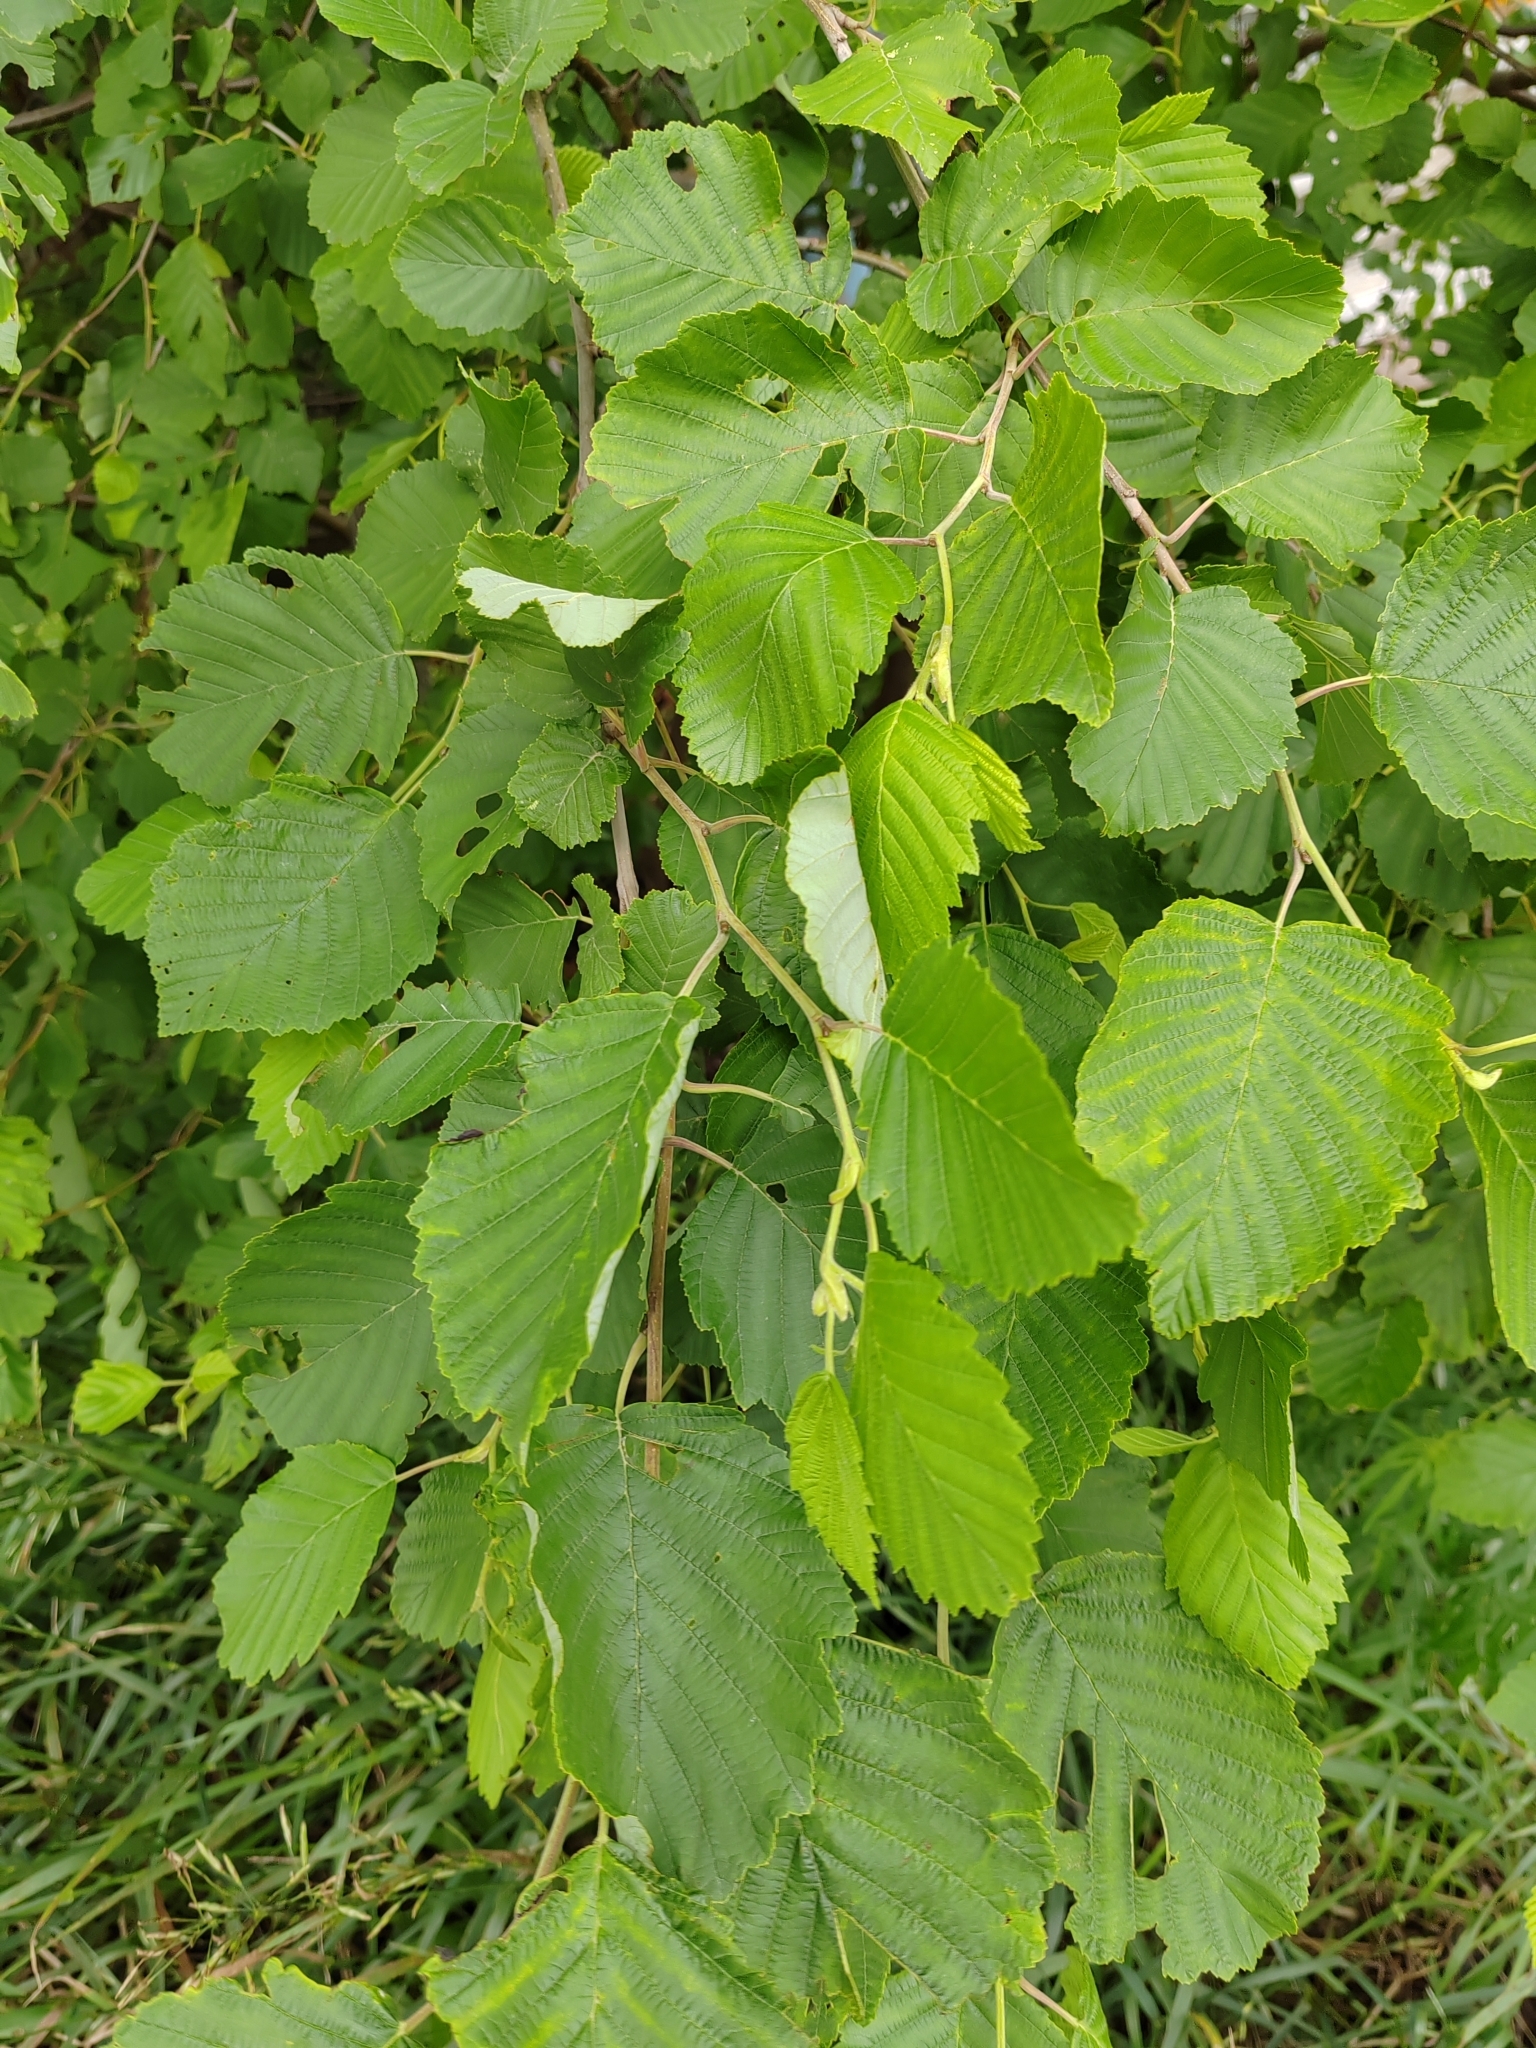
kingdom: Plantae
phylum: Tracheophyta
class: Magnoliopsida
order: Fagales
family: Betulaceae
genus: Alnus
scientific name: Alnus incana
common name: Grey alder
